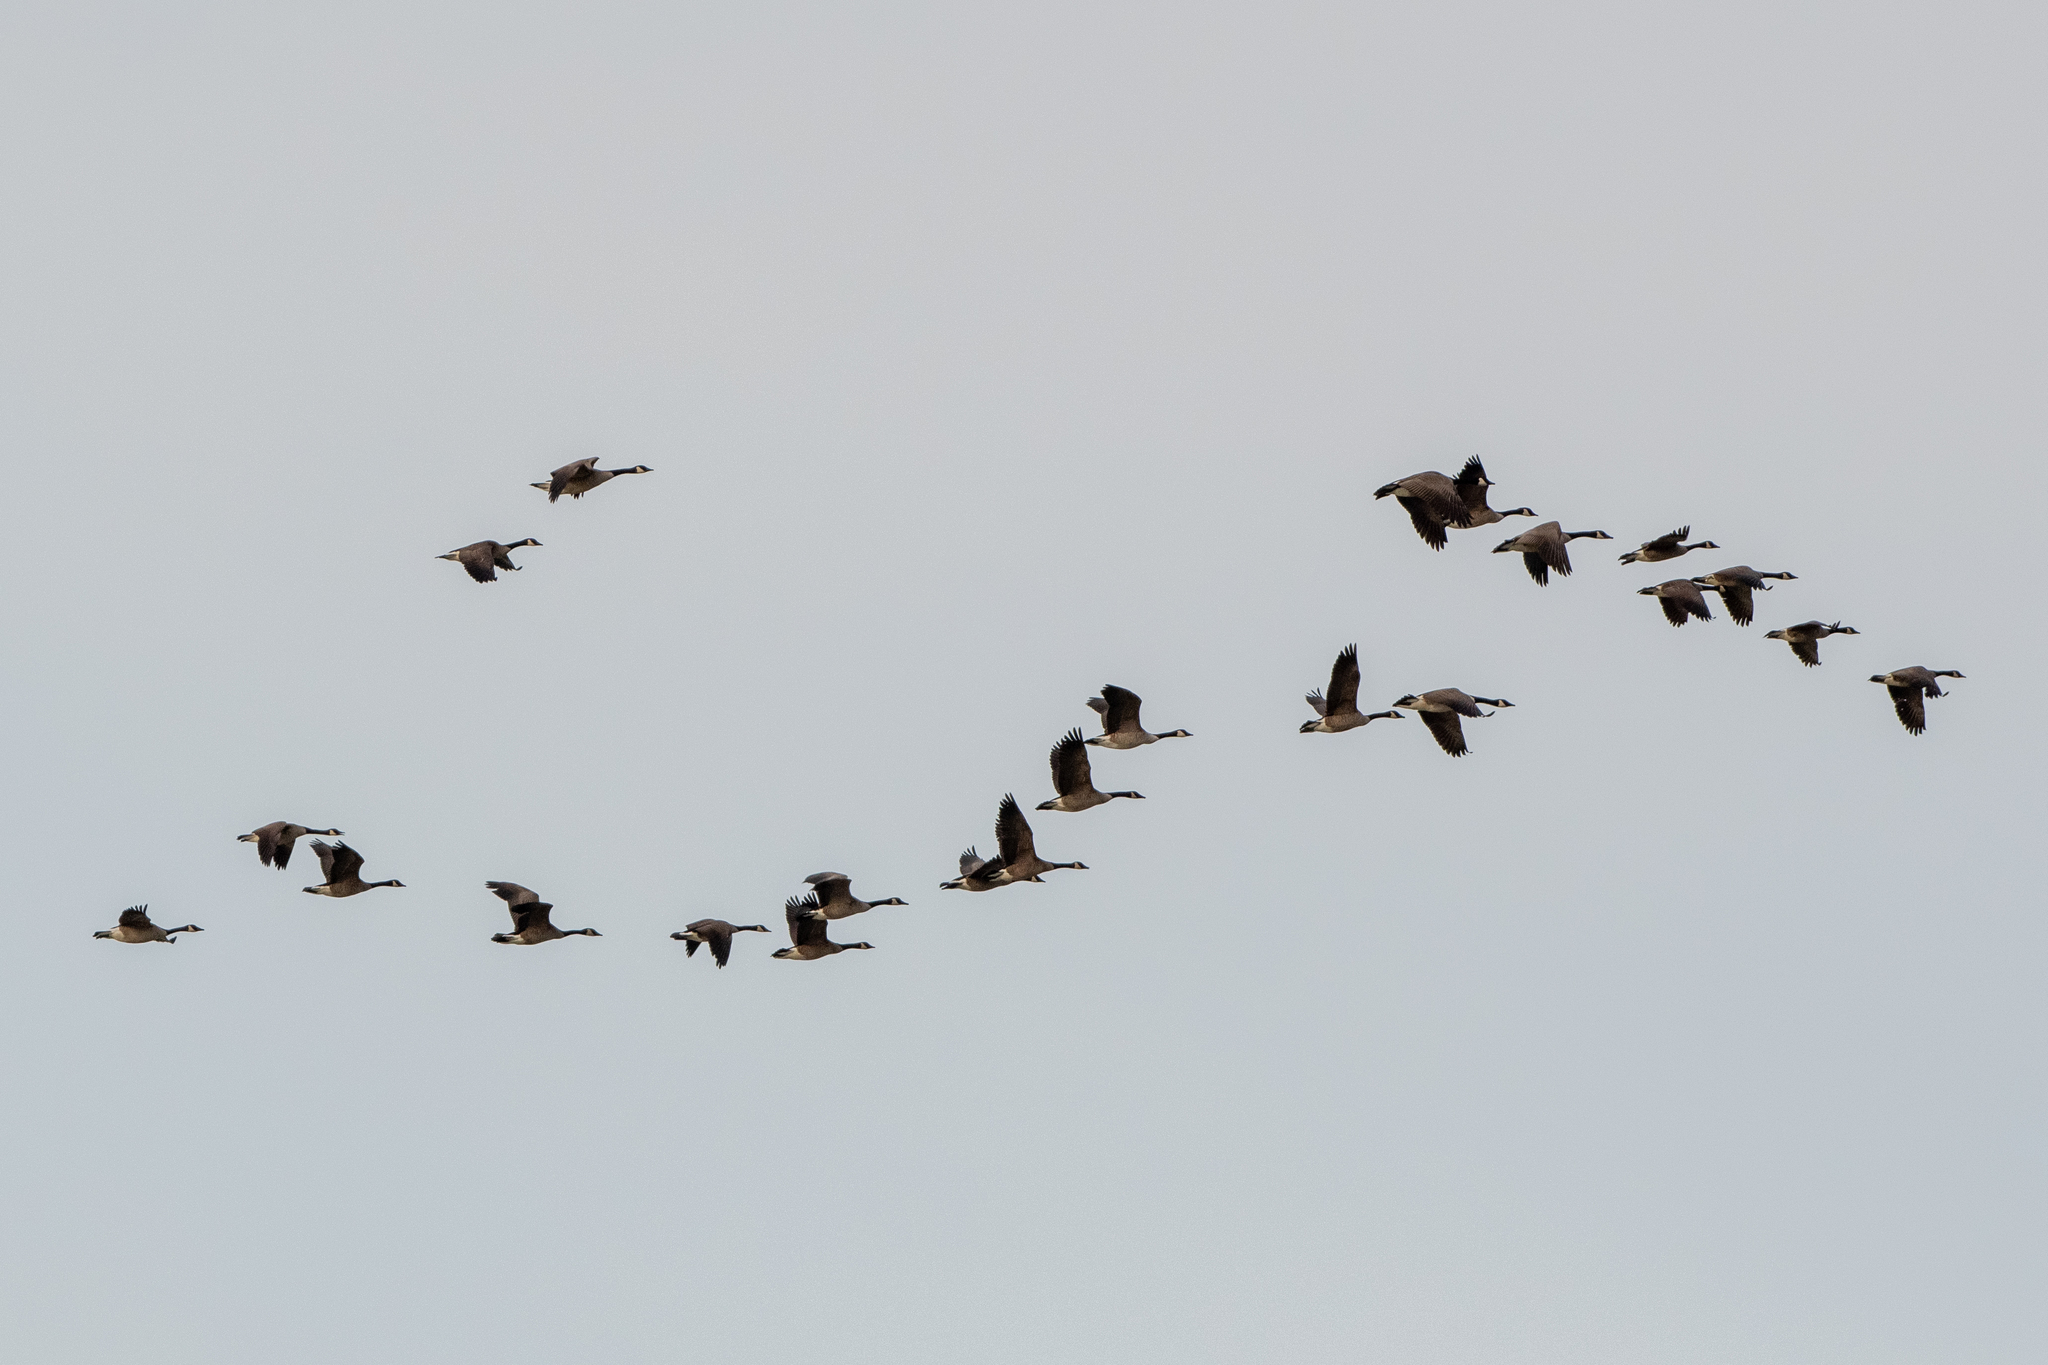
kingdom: Animalia
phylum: Chordata
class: Aves
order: Anseriformes
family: Anatidae
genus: Branta
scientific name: Branta canadensis
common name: Canada goose
